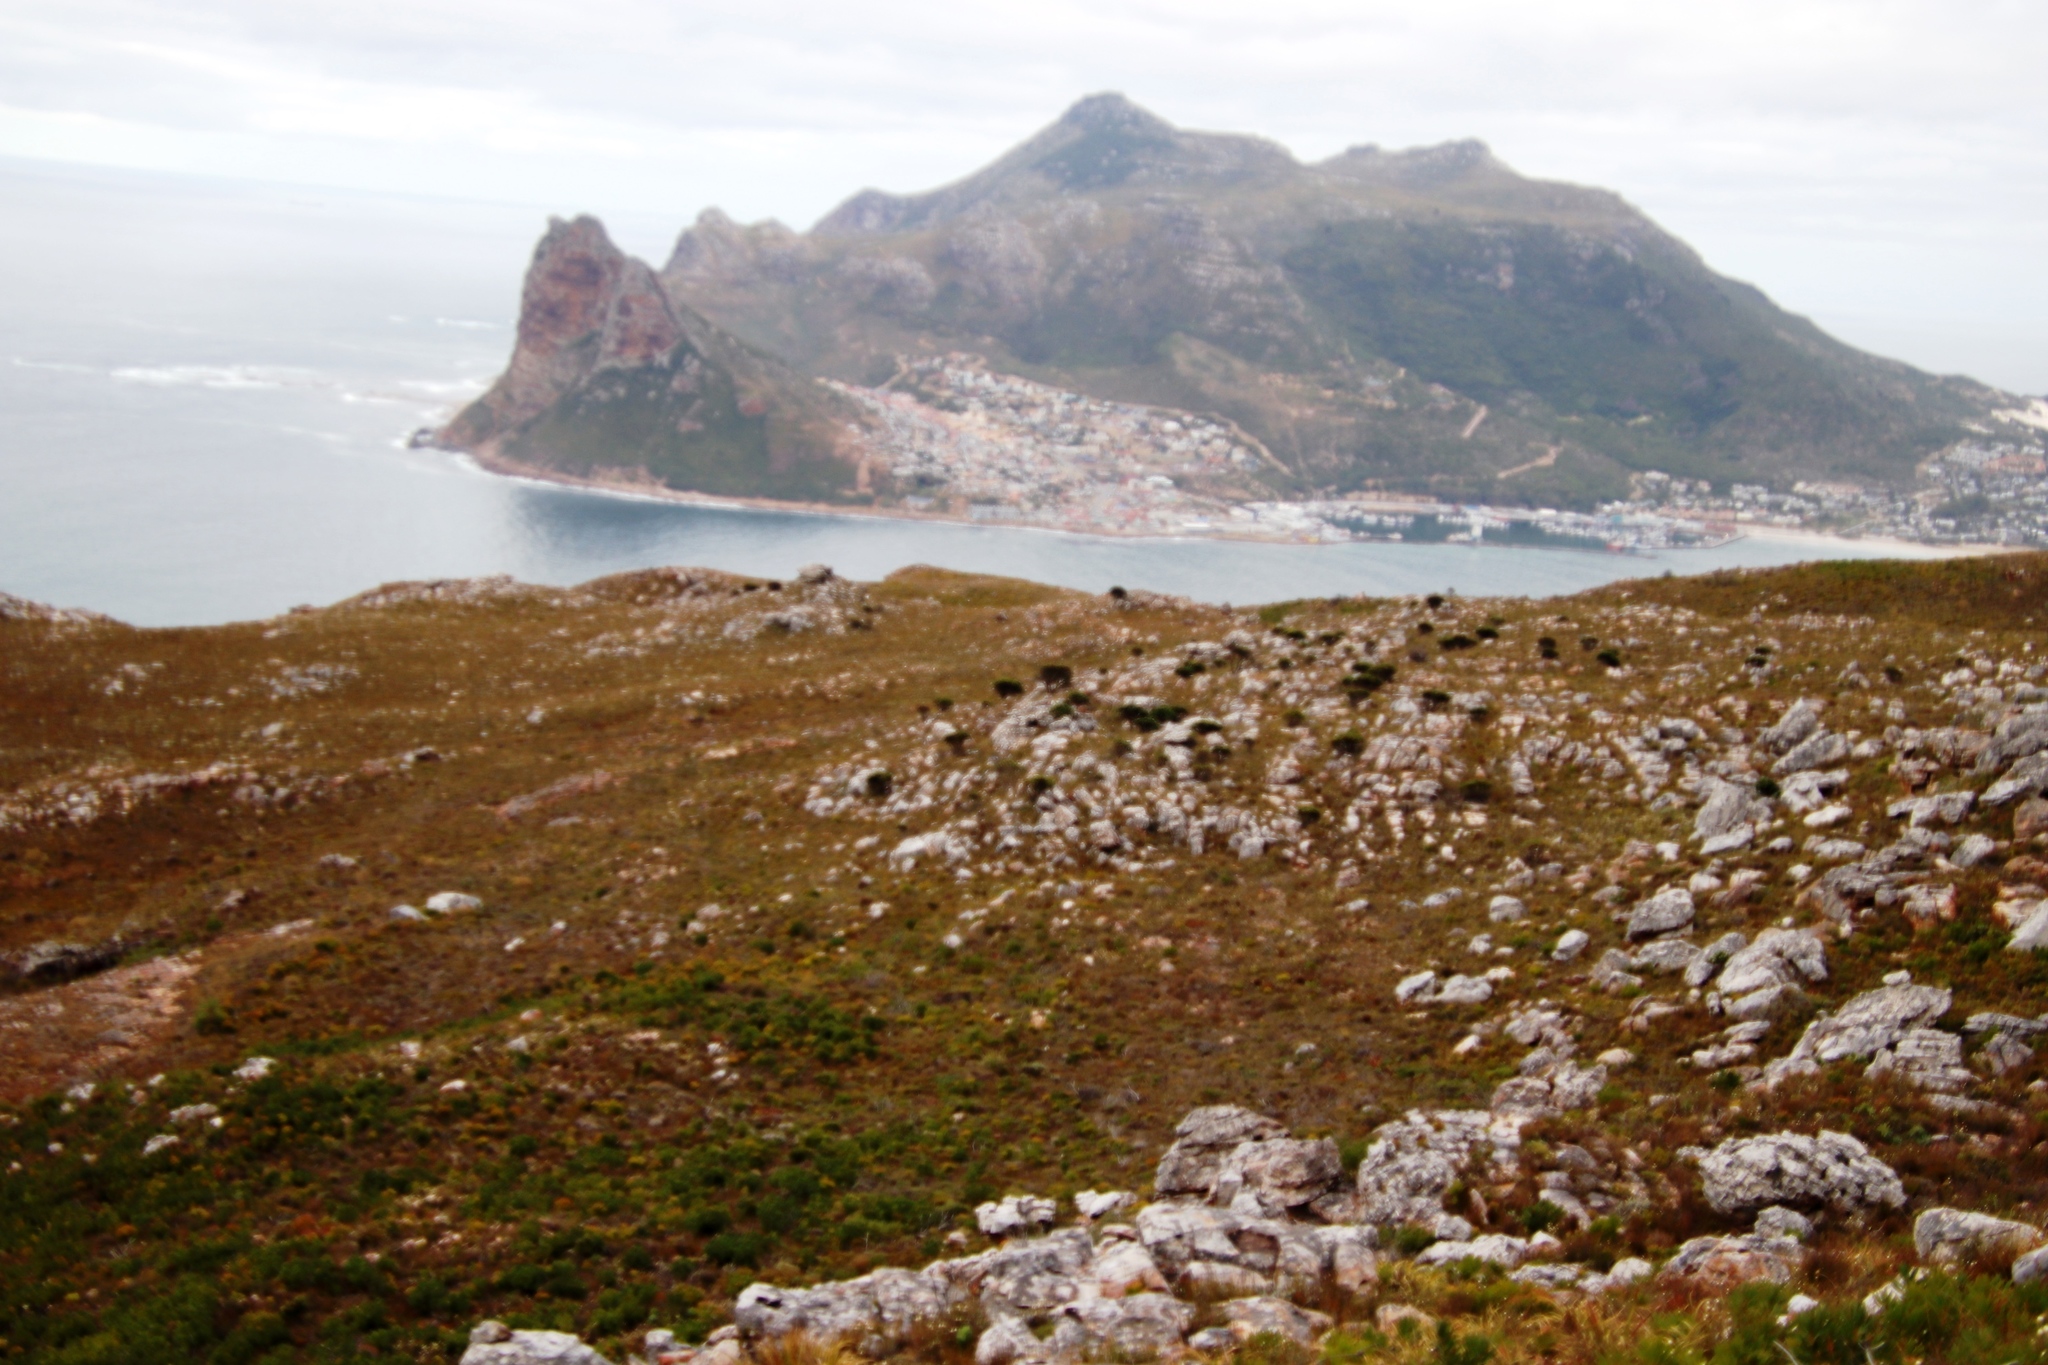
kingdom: Plantae
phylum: Tracheophyta
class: Magnoliopsida
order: Proteales
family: Proteaceae
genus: Leucospermum
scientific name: Leucospermum conocarpodendron
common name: Tree pincushion
